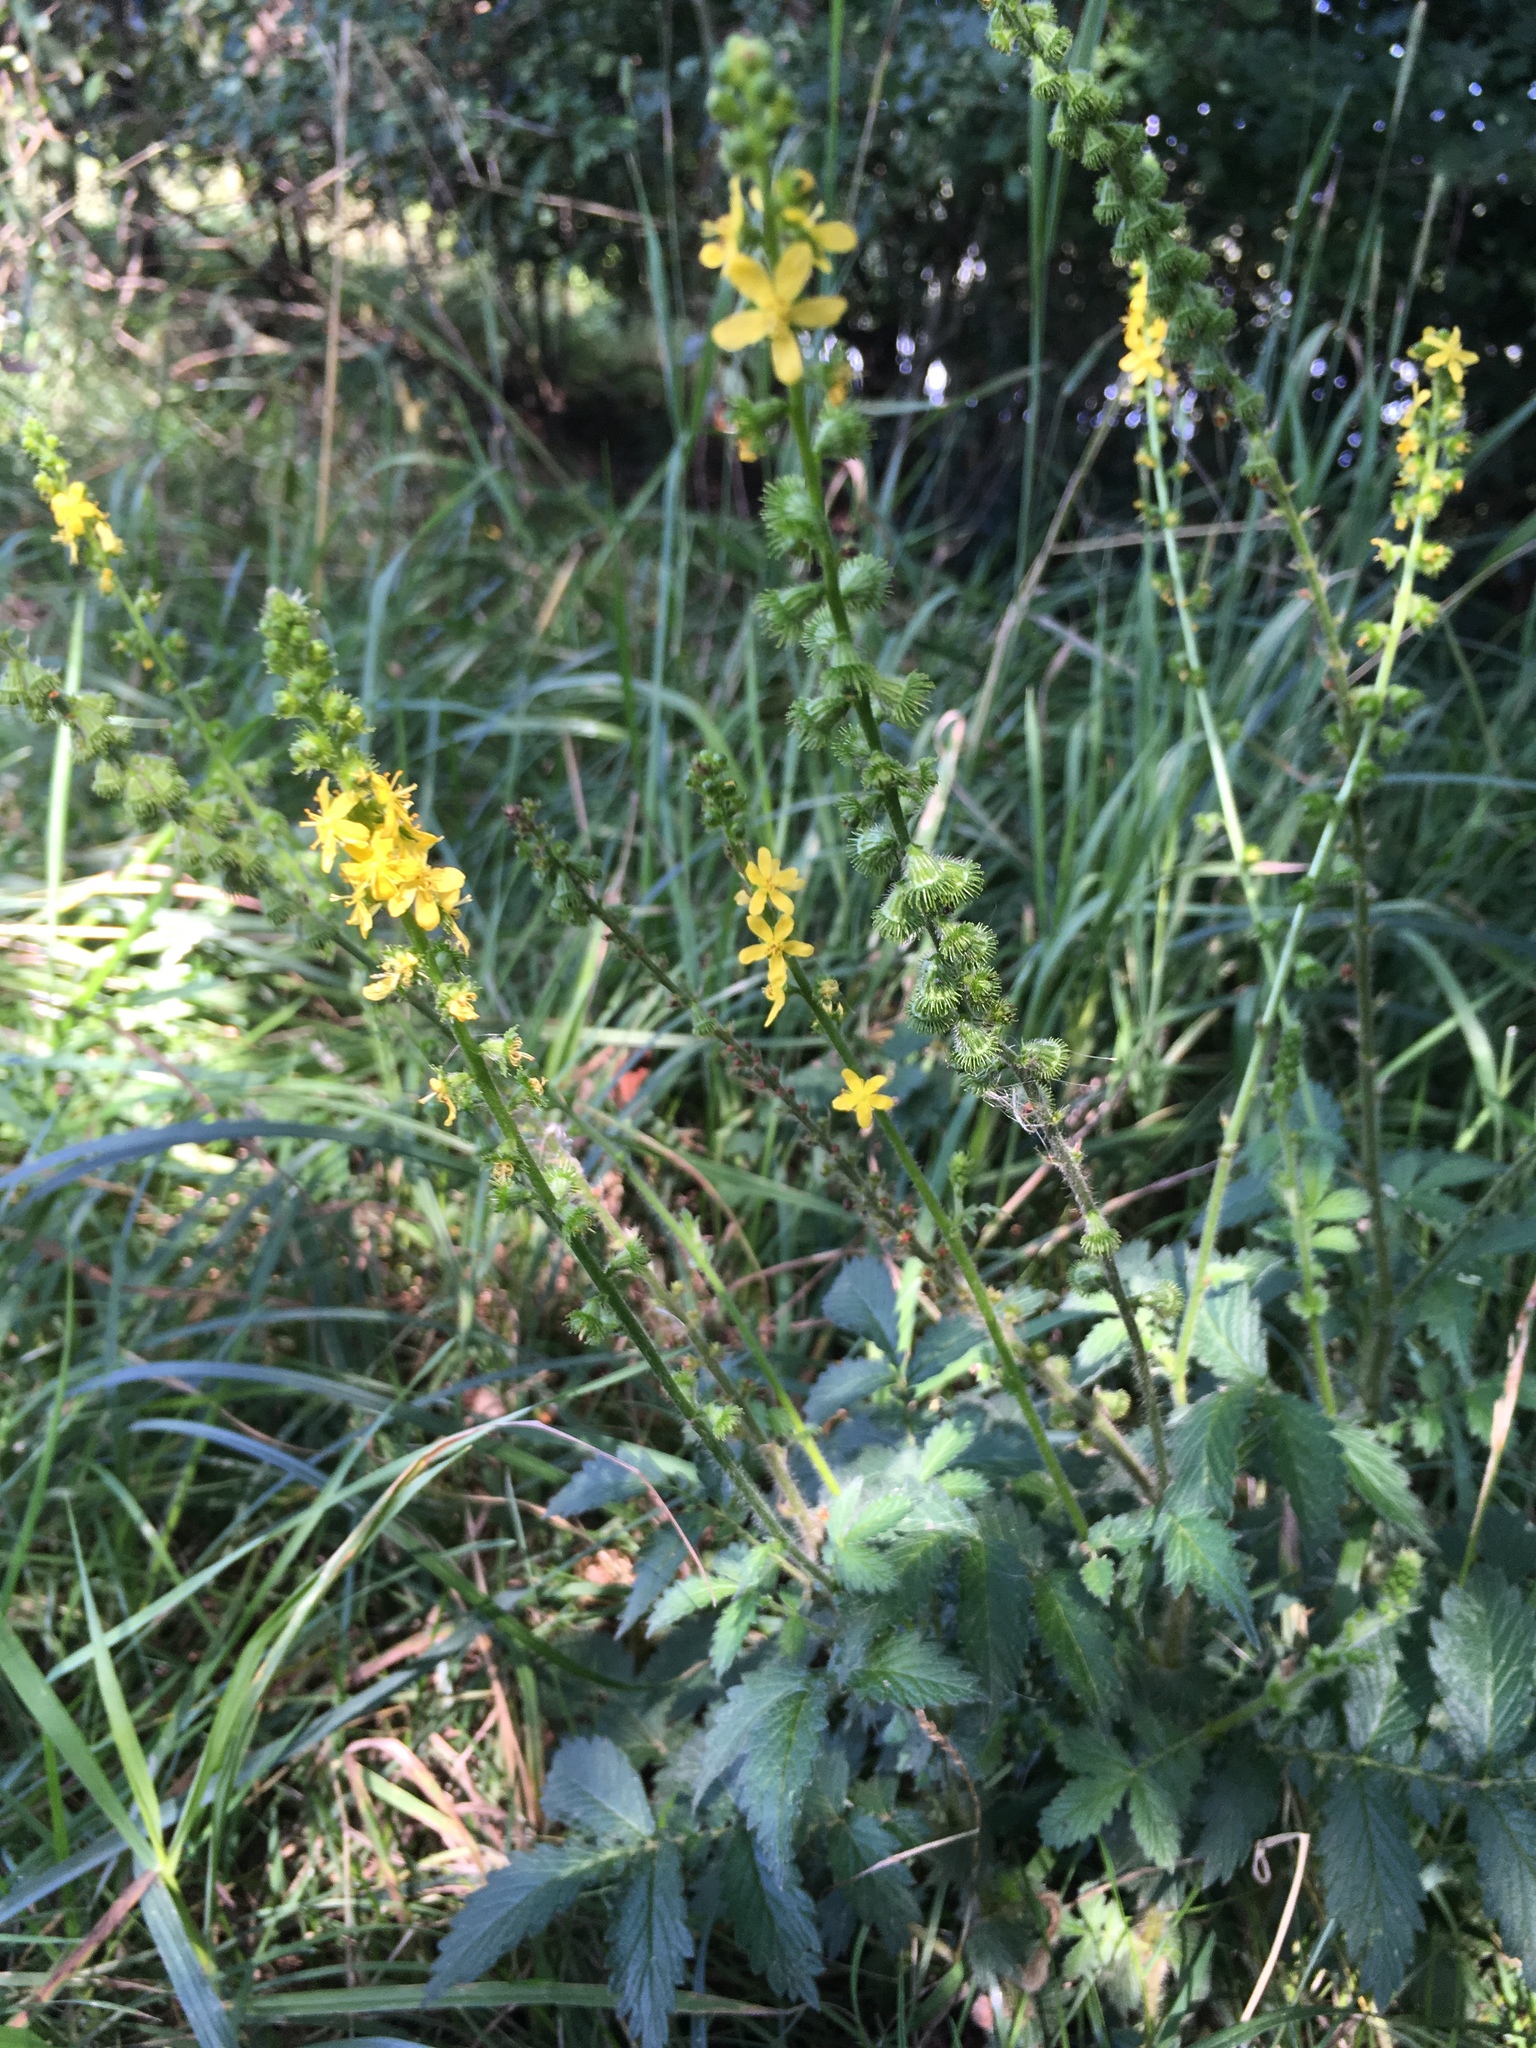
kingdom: Plantae
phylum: Tracheophyta
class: Magnoliopsida
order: Rosales
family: Rosaceae
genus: Agrimonia
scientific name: Agrimonia eupatoria
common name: Agrimony
